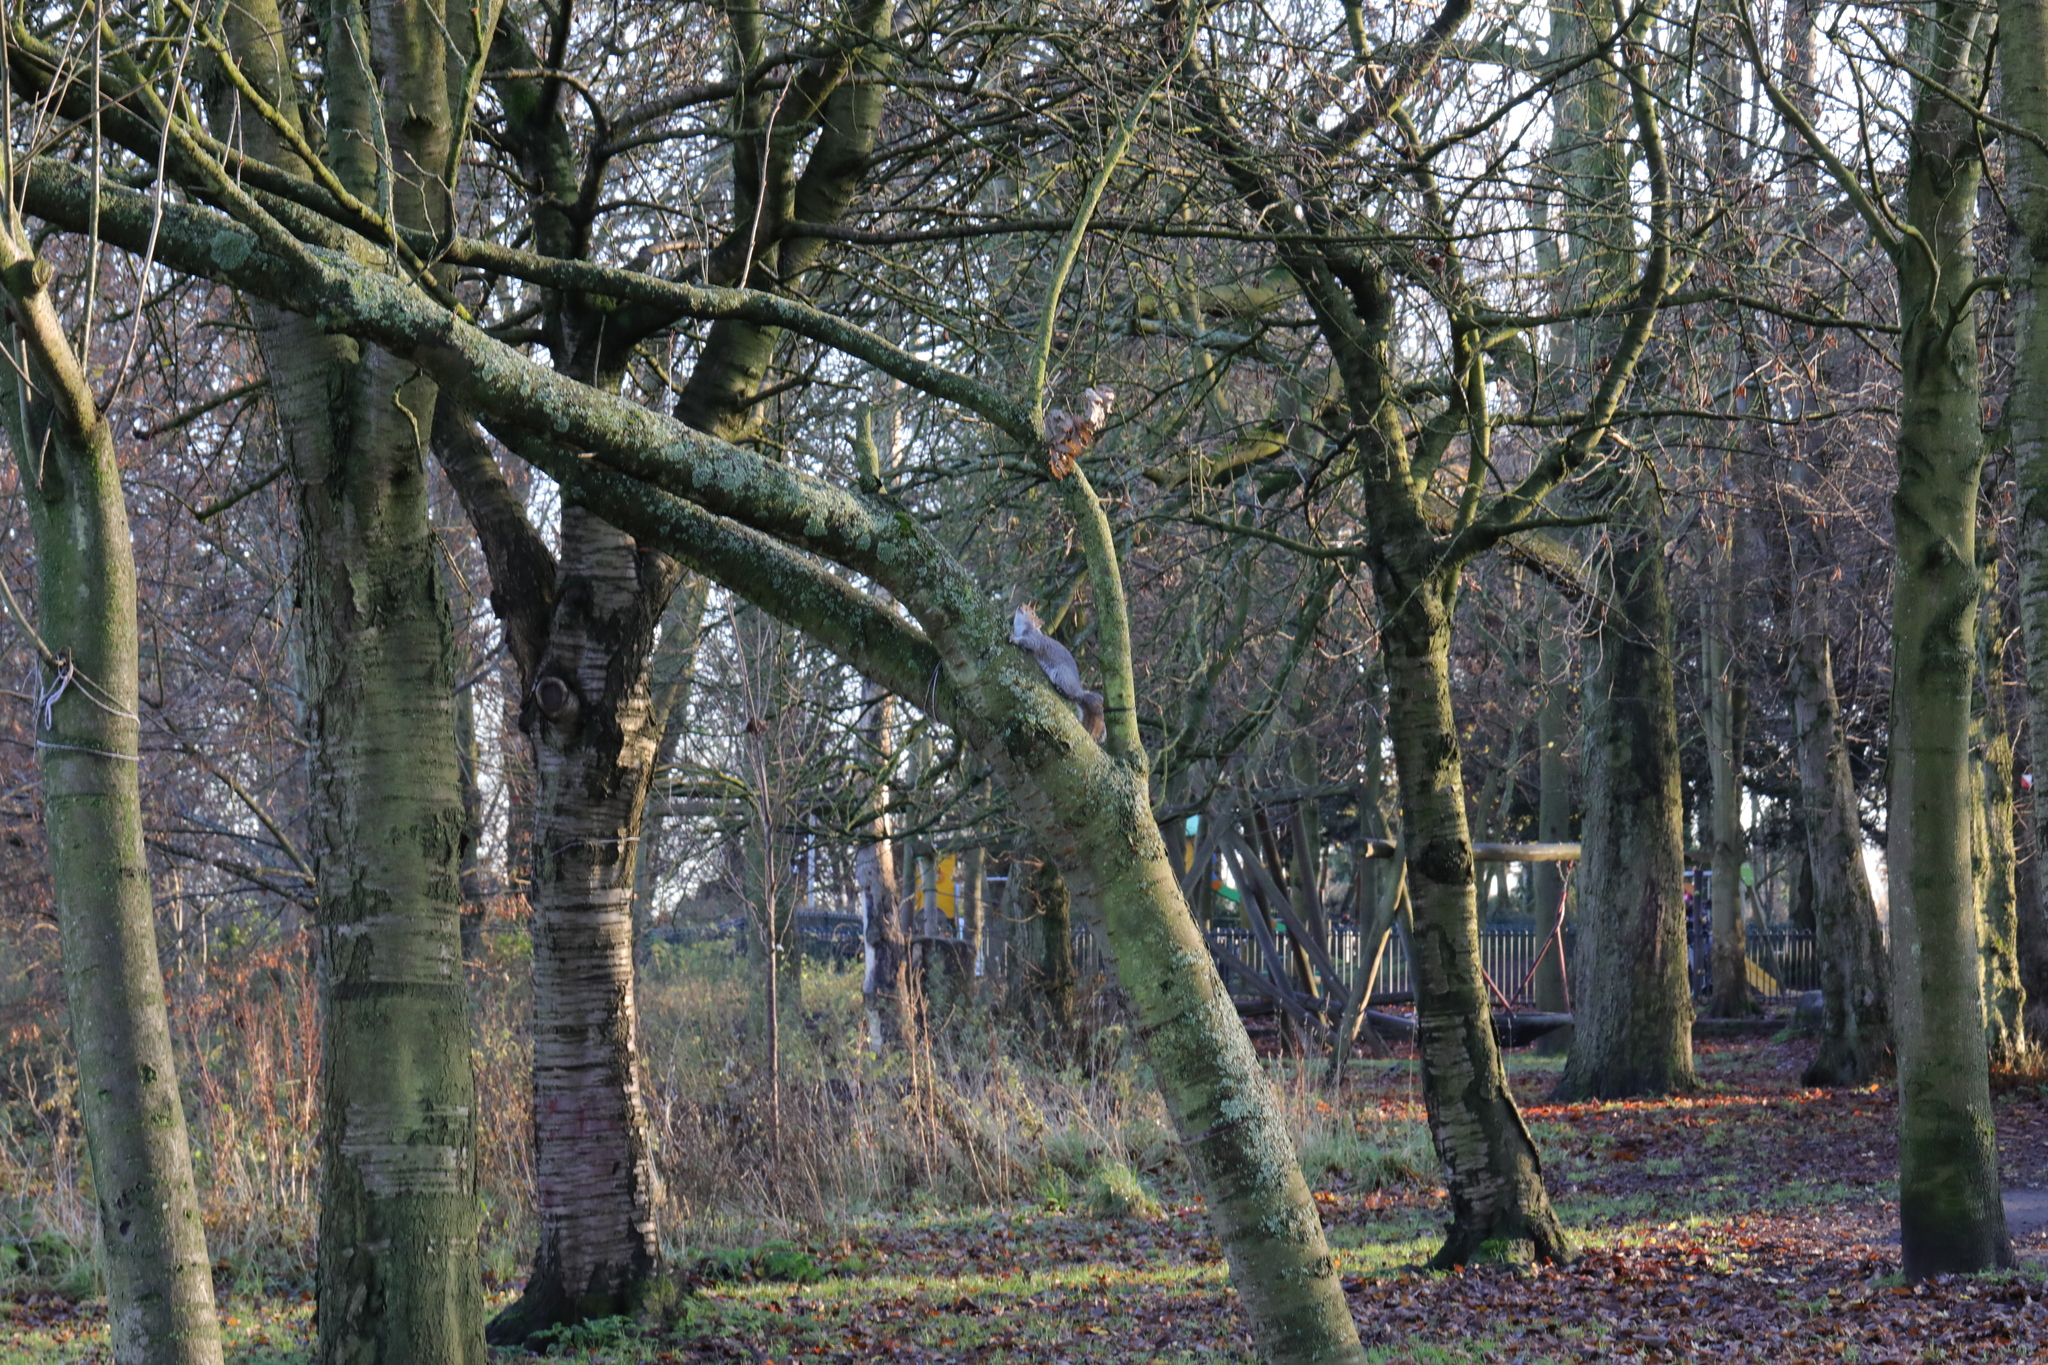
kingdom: Animalia
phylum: Chordata
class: Mammalia
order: Rodentia
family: Sciuridae
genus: Sciurus
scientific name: Sciurus carolinensis
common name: Eastern gray squirrel
